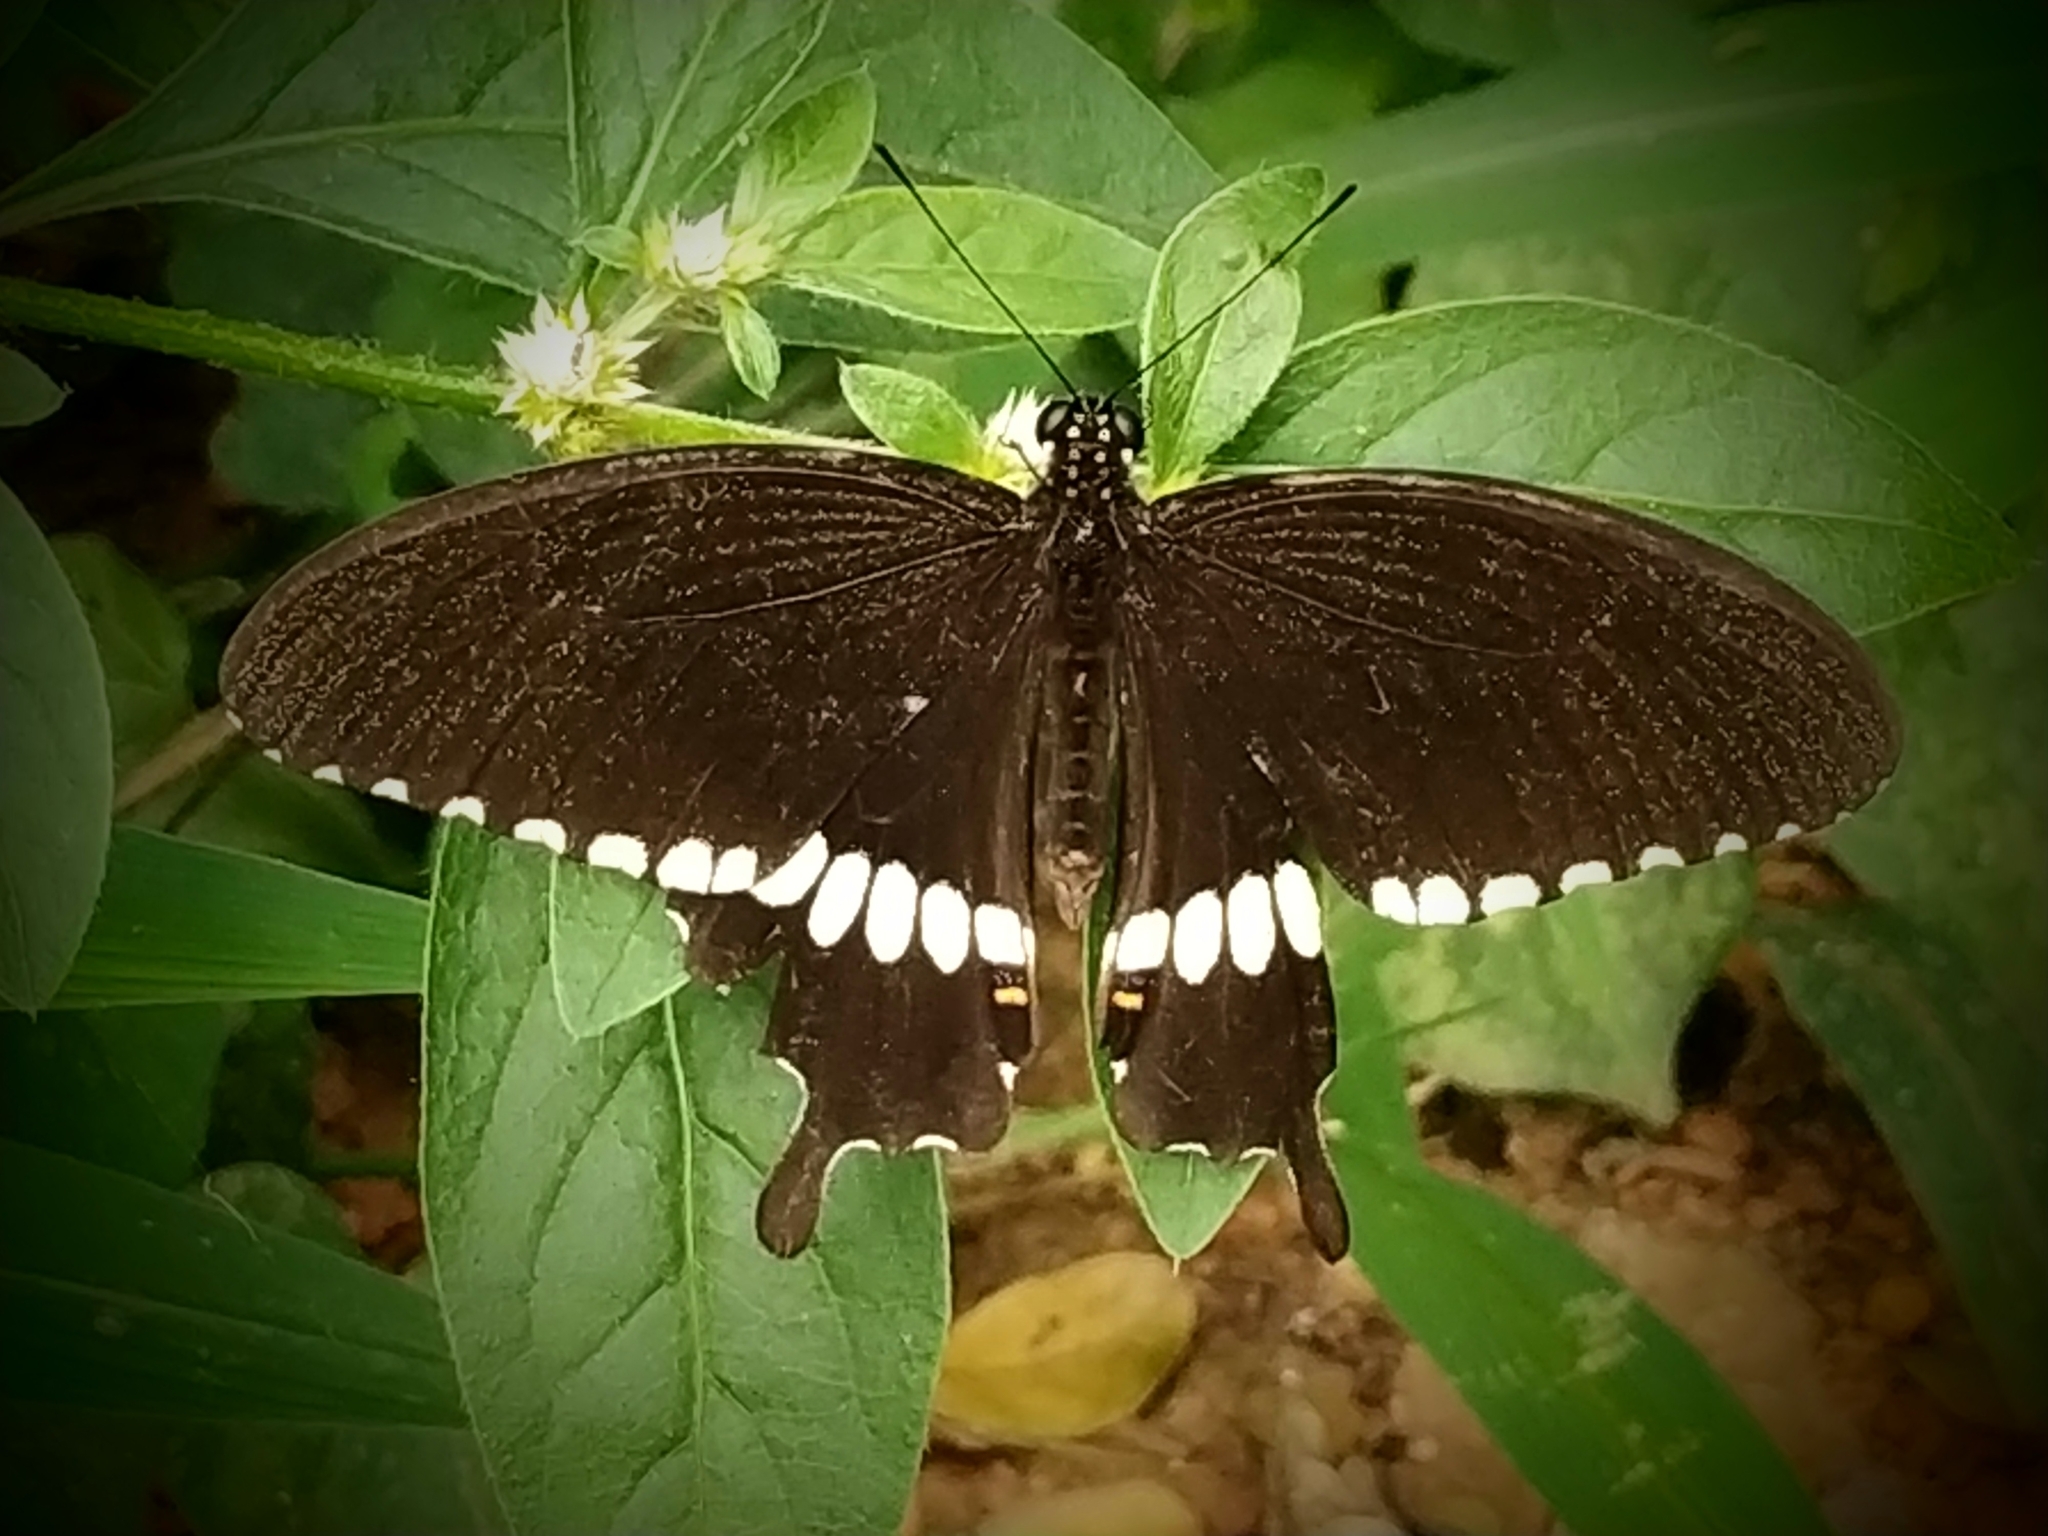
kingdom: Animalia
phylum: Arthropoda
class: Insecta
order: Lepidoptera
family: Papilionidae
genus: Papilio
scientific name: Papilio polytes
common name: Common mormon
